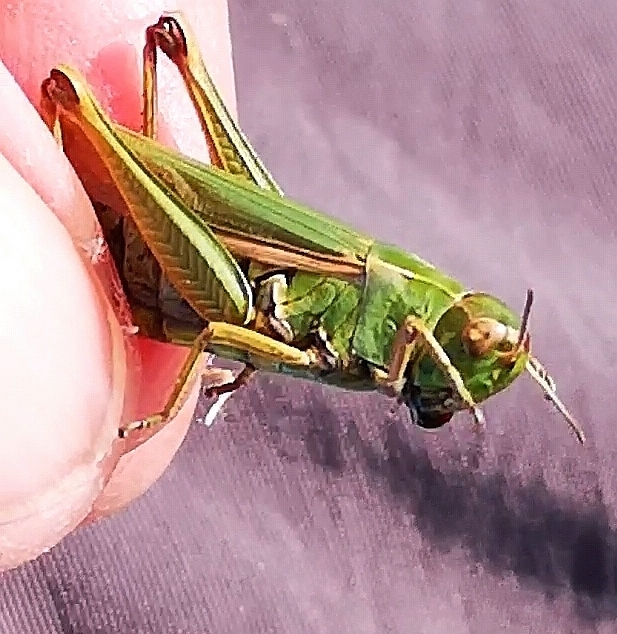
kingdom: Animalia
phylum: Arthropoda
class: Insecta
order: Orthoptera
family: Acrididae
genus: Omocestus
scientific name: Omocestus viridulus
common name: Common green grasshopper
